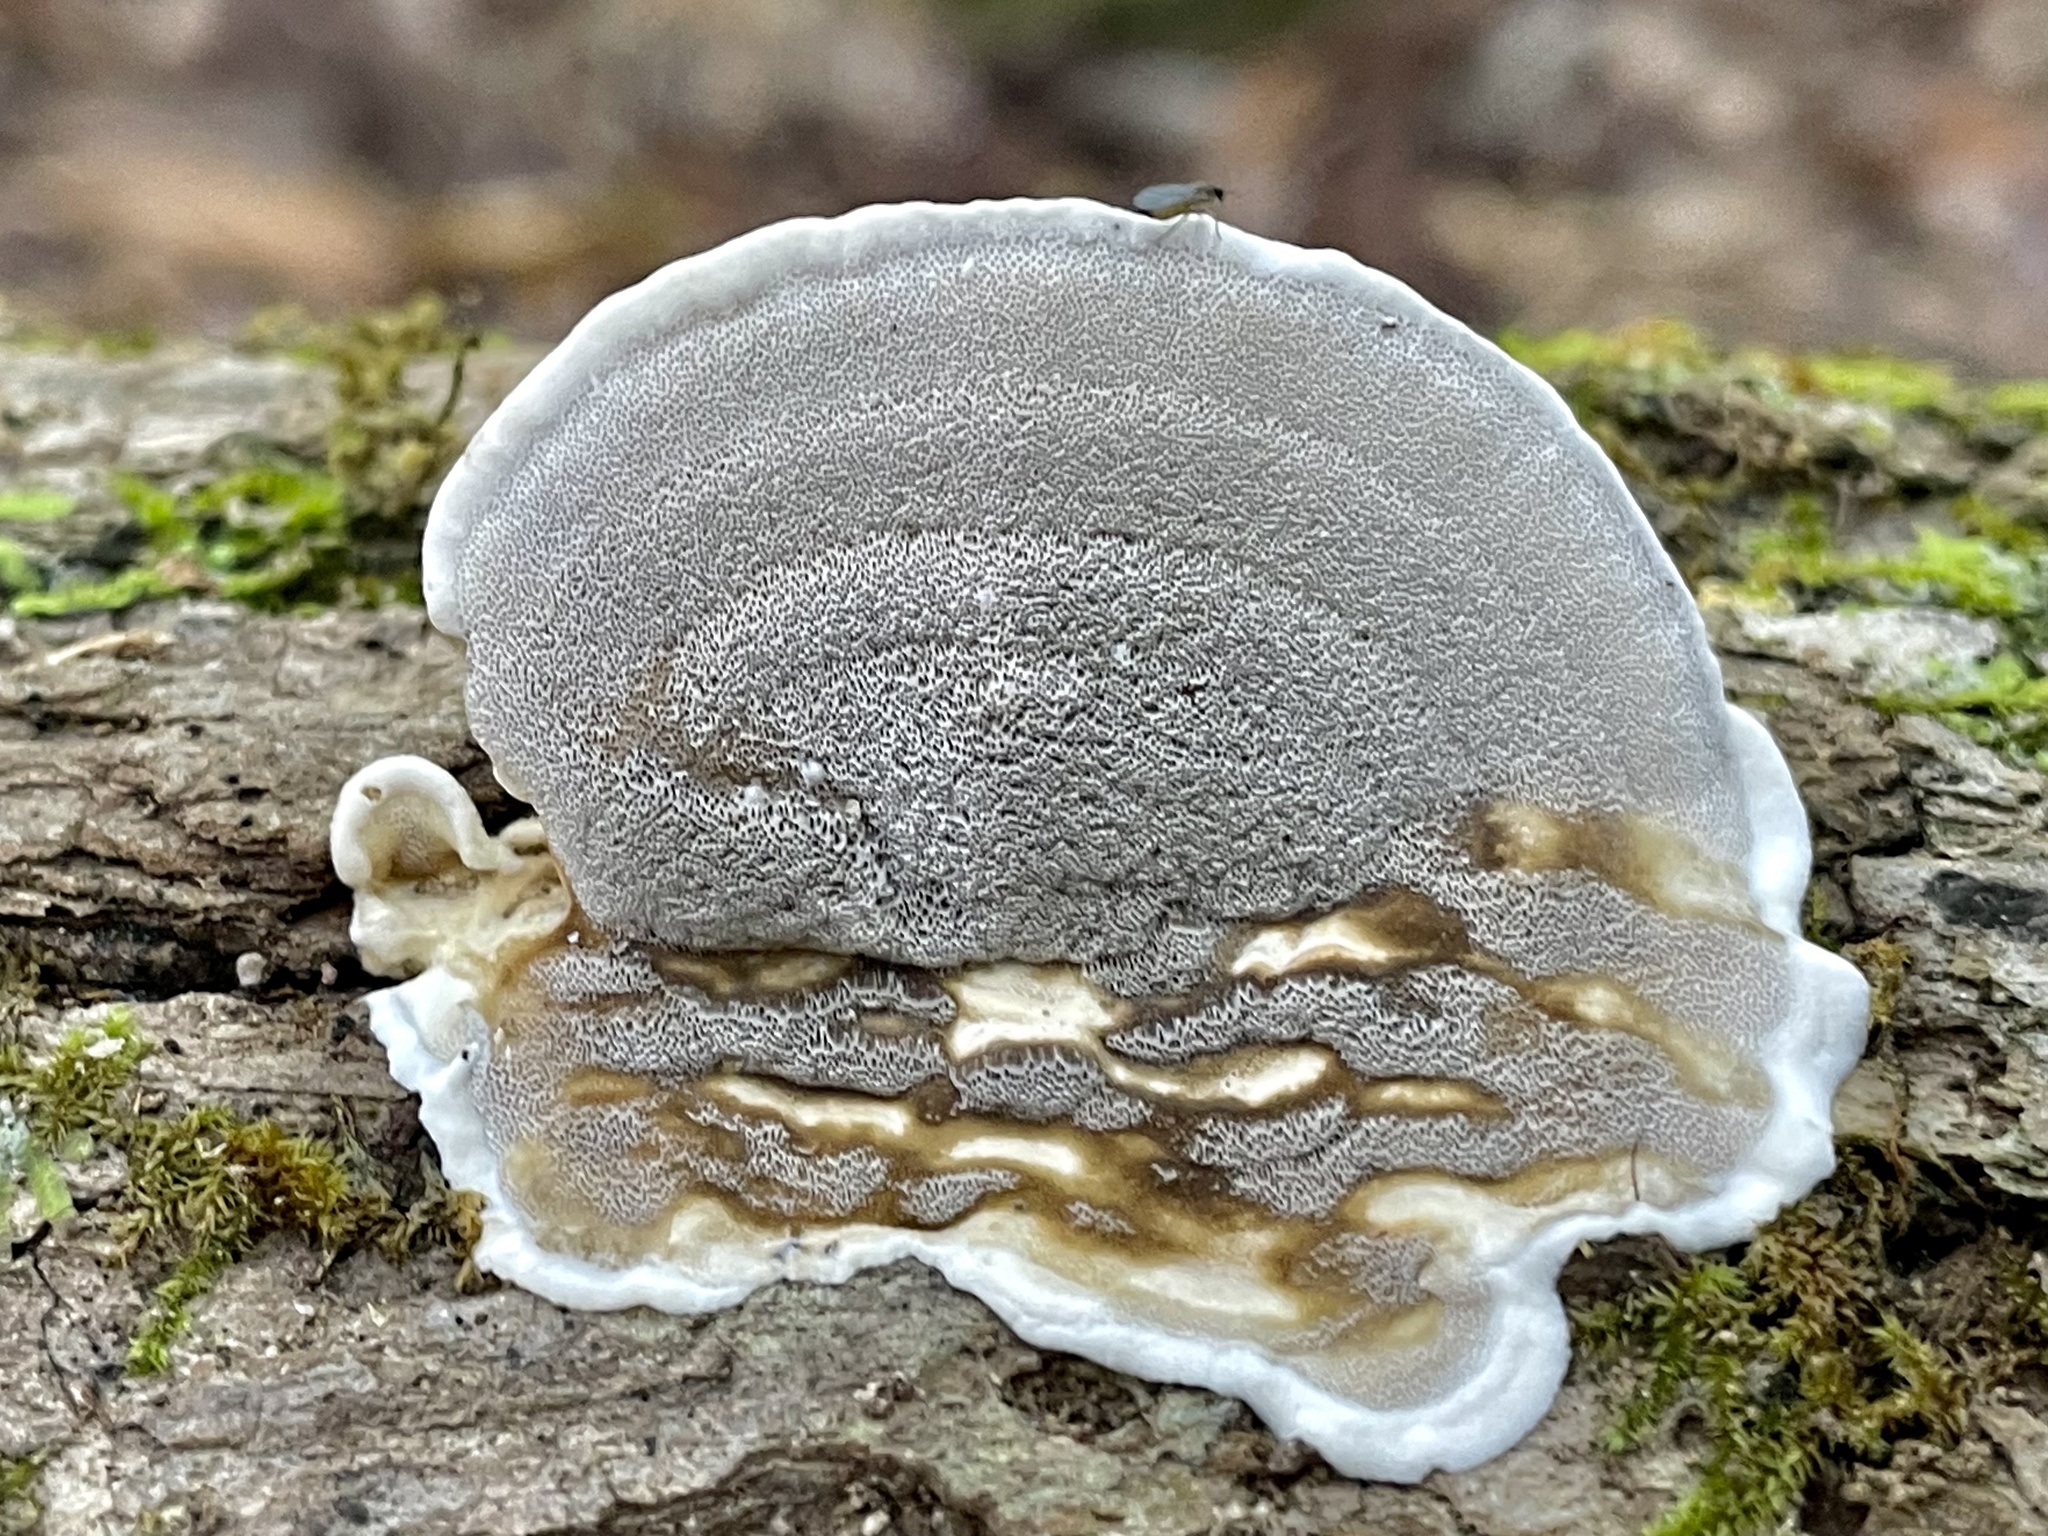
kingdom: Fungi
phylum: Basidiomycota
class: Agaricomycetes
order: Polyporales
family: Phanerochaetaceae
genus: Bjerkandera
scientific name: Bjerkandera adusta
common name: Smoky bracket
